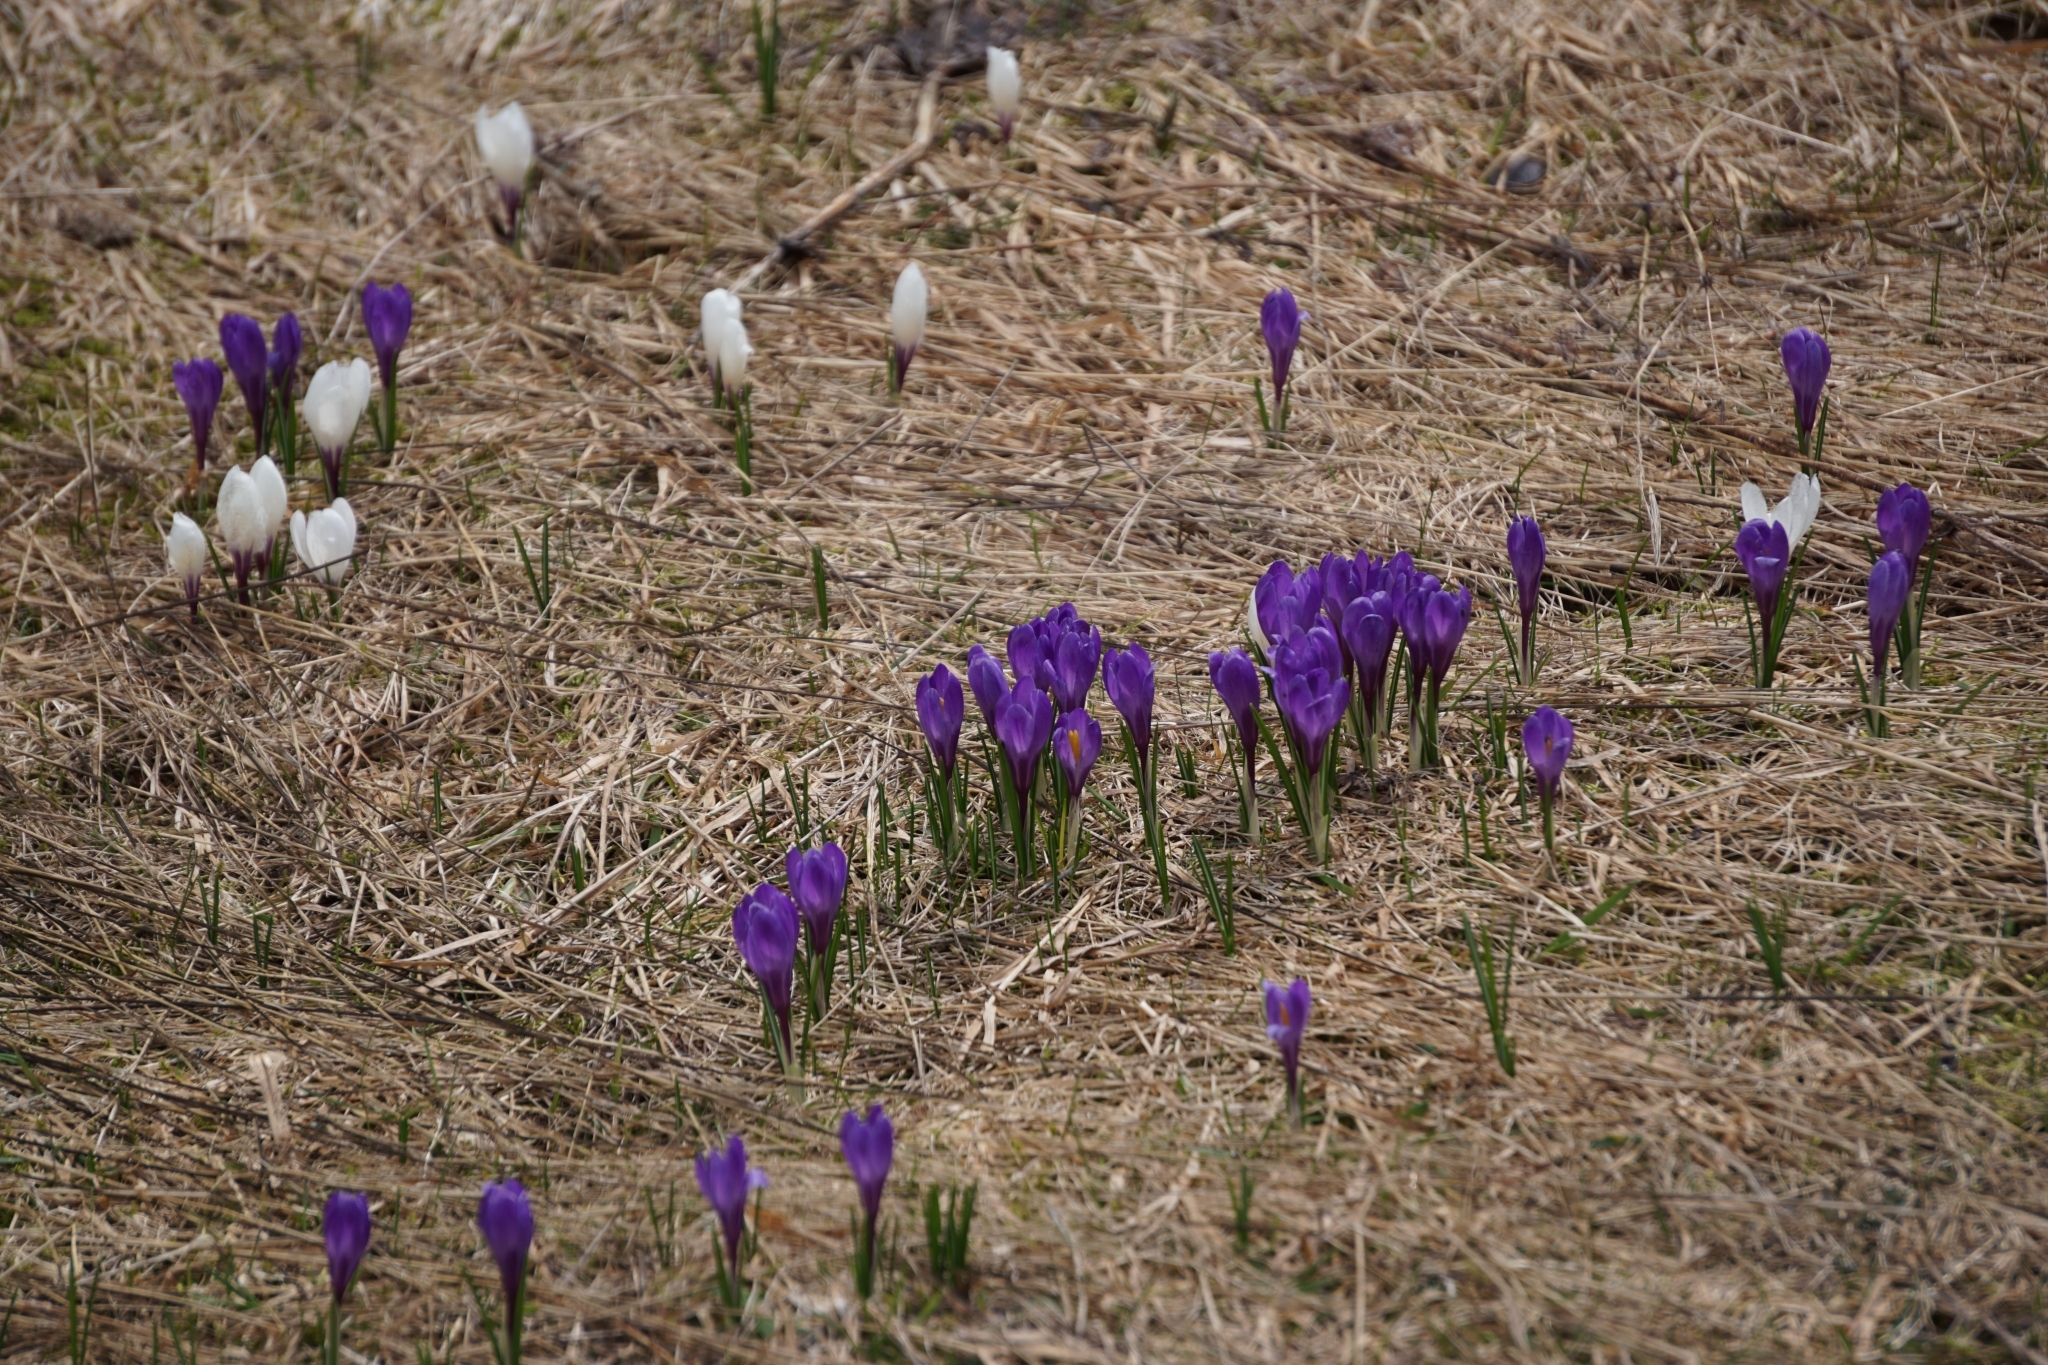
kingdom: Plantae
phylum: Tracheophyta
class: Liliopsida
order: Asparagales
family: Iridaceae
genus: Crocus
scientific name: Crocus vernus
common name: Spring crocus
